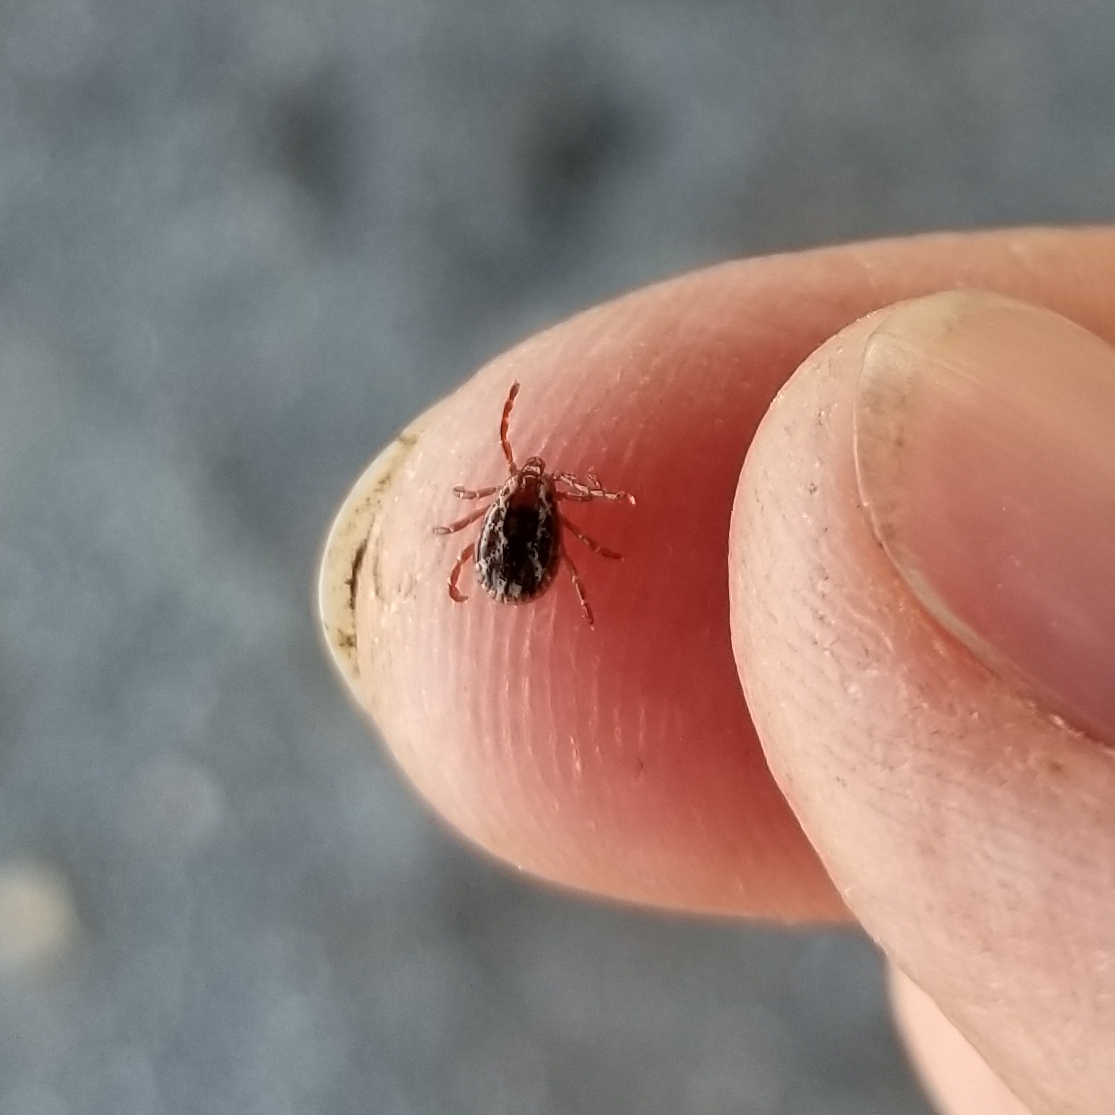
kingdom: Animalia
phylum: Arthropoda
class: Arachnida
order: Ixodida
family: Ixodidae
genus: Dermacentor
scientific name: Dermacentor variabilis
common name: American dog tick
